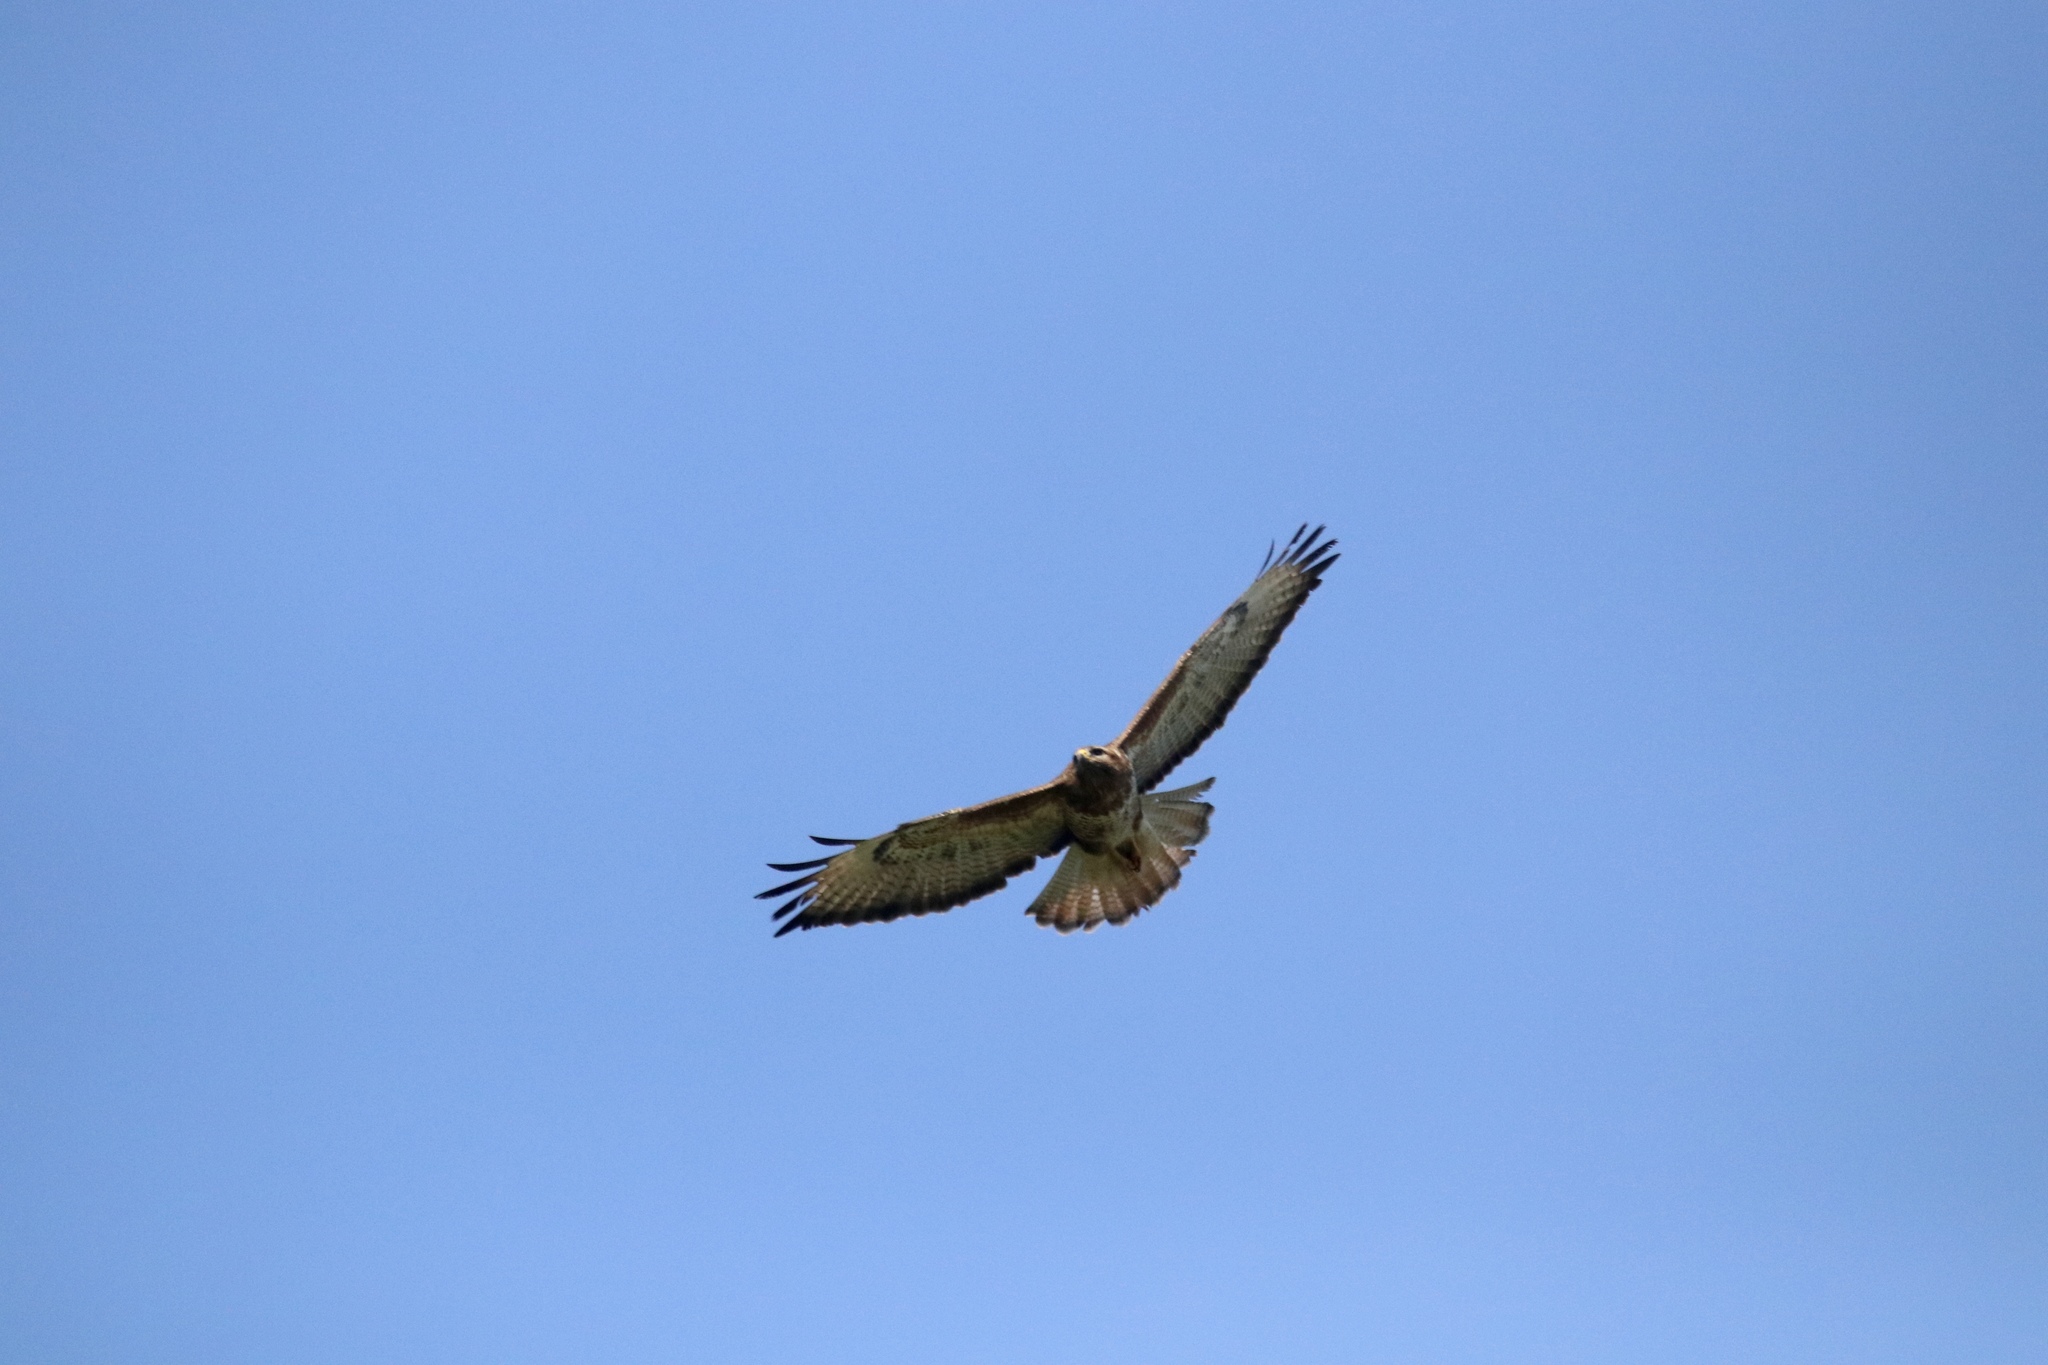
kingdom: Animalia
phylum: Chordata
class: Aves
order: Accipitriformes
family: Accipitridae
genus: Buteo
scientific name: Buteo buteo
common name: Common buzzard
